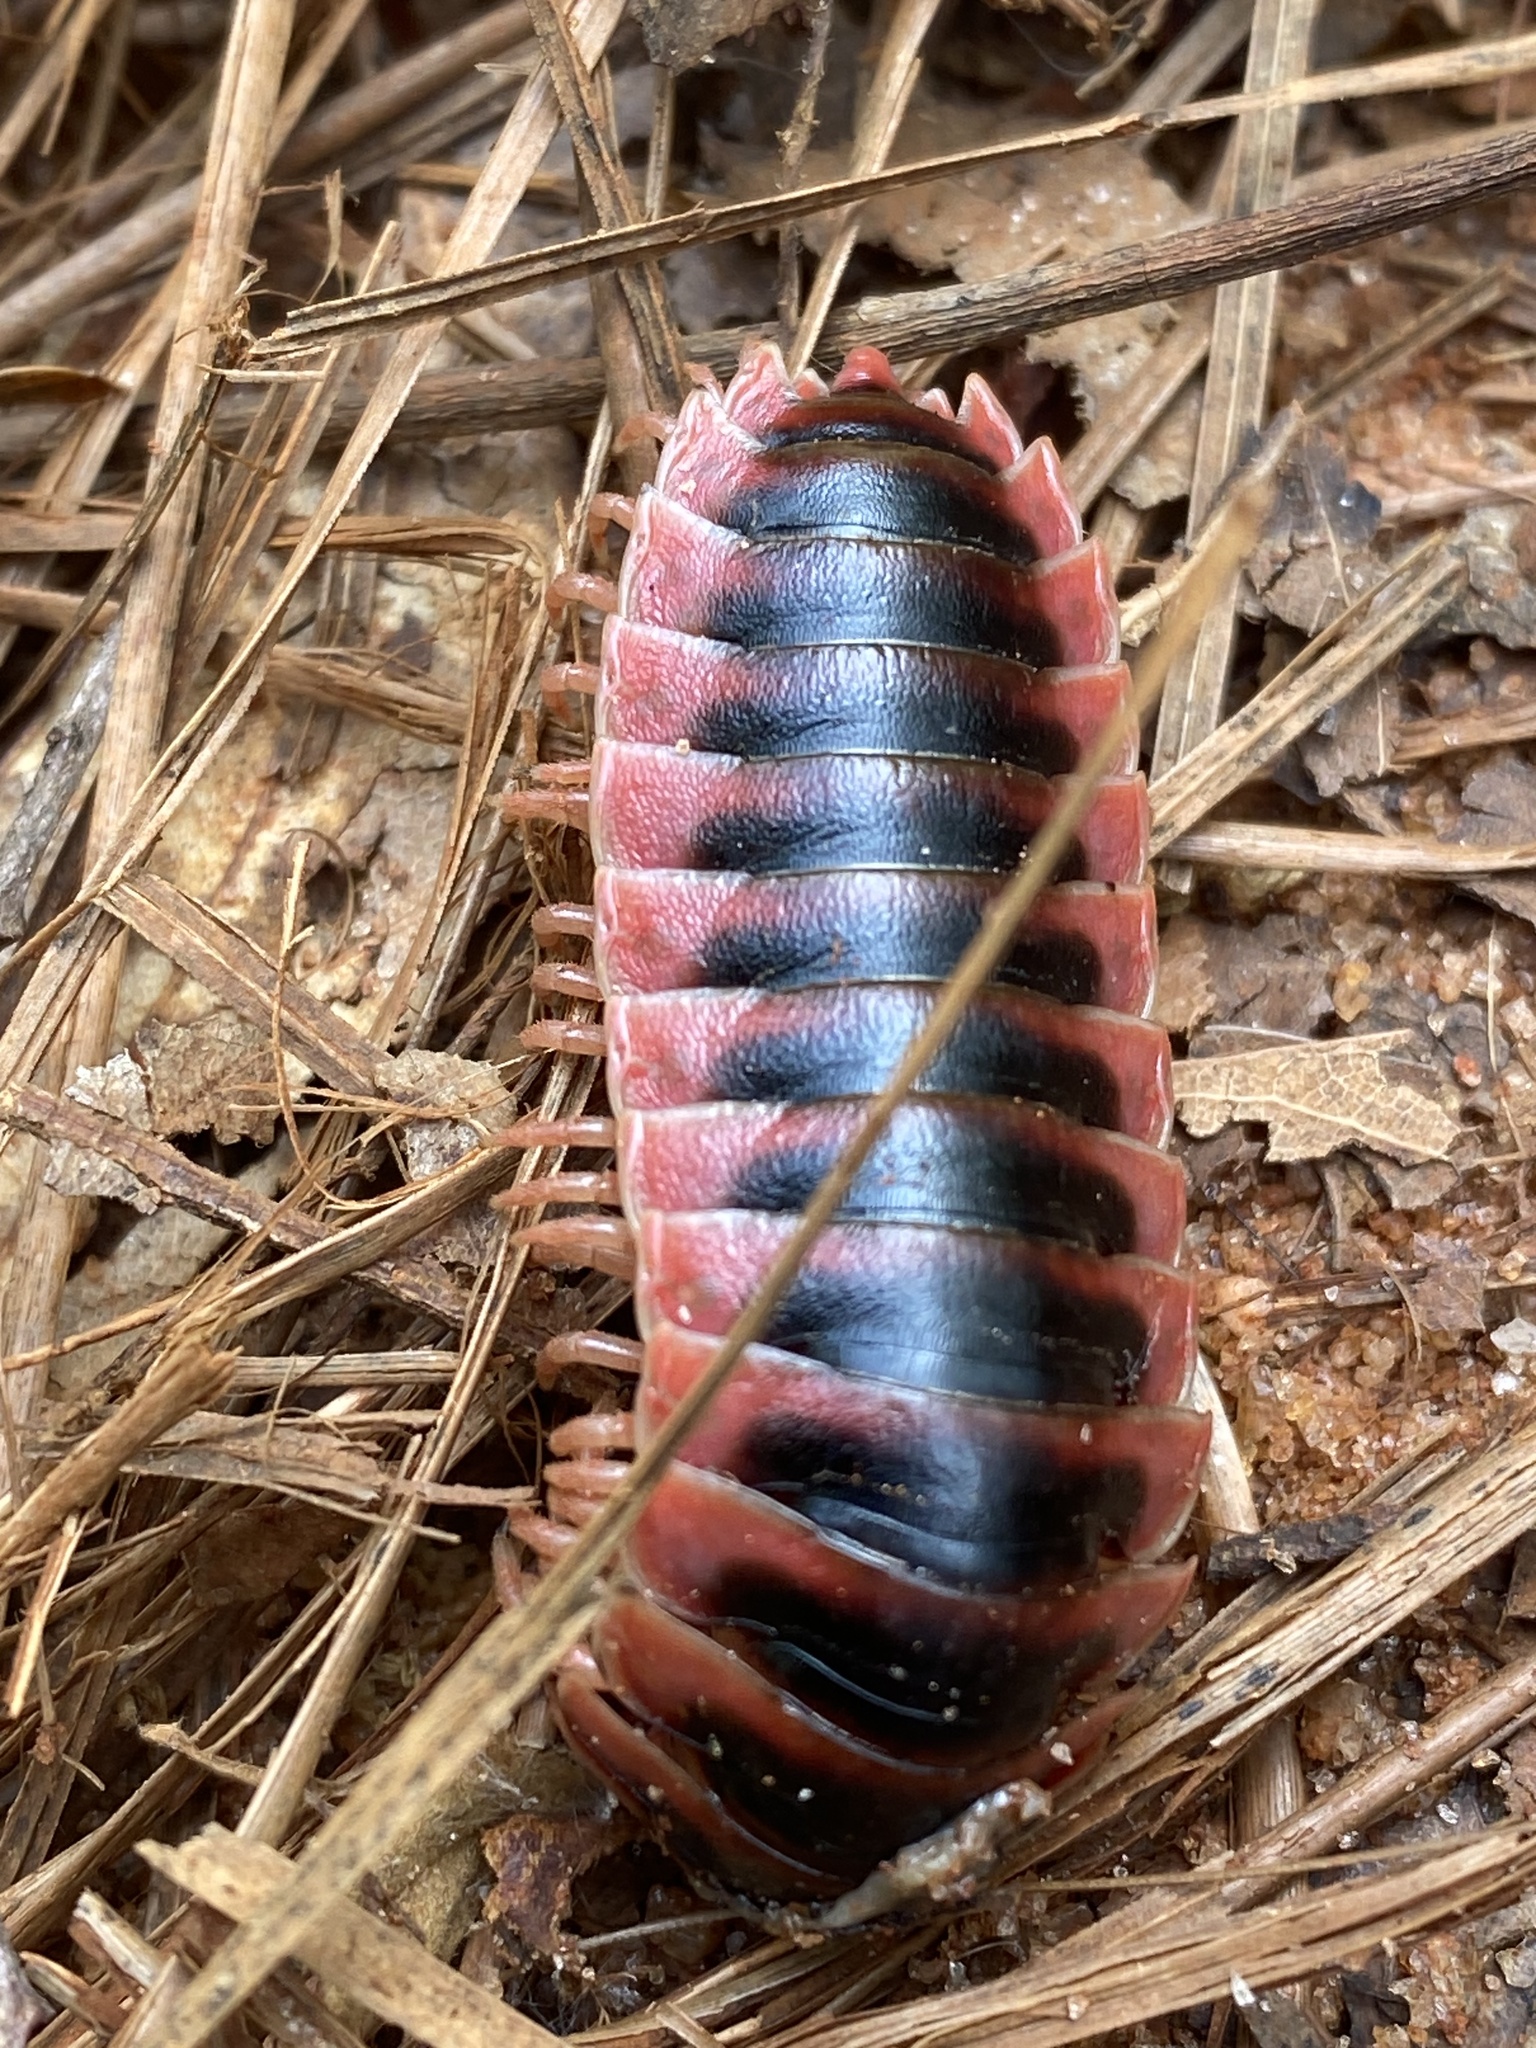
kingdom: Animalia
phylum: Arthropoda
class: Diplopoda
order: Polydesmida
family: Xystodesmidae
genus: Sigmoria
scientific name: Sigmoria australis
